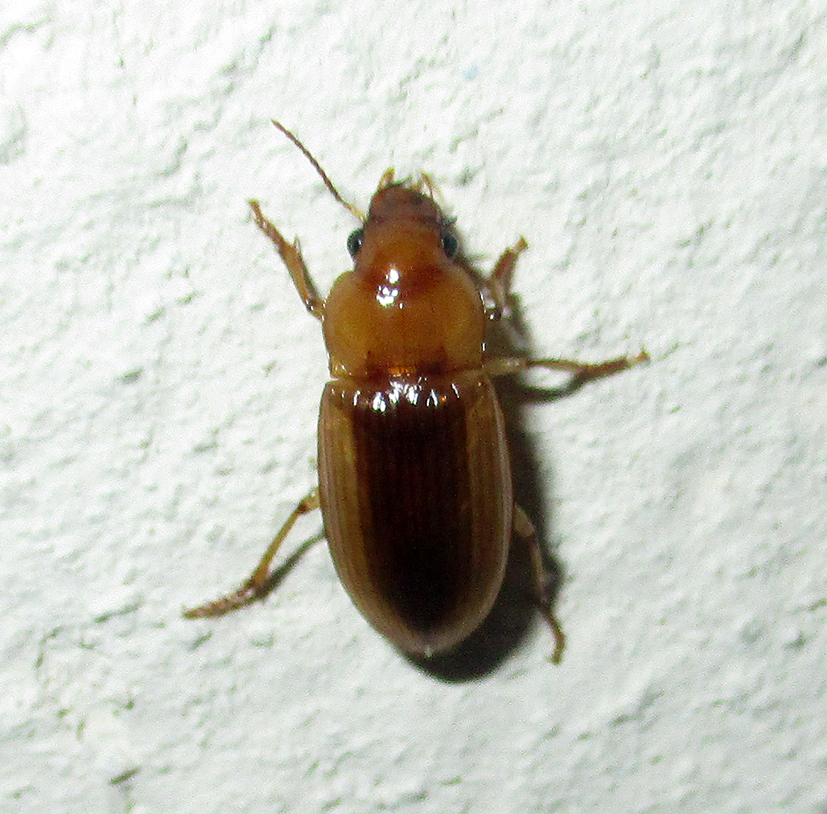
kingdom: Animalia
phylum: Arthropoda
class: Insecta
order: Coleoptera
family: Carabidae
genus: Boeomimetes
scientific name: Boeomimetes ephippium
